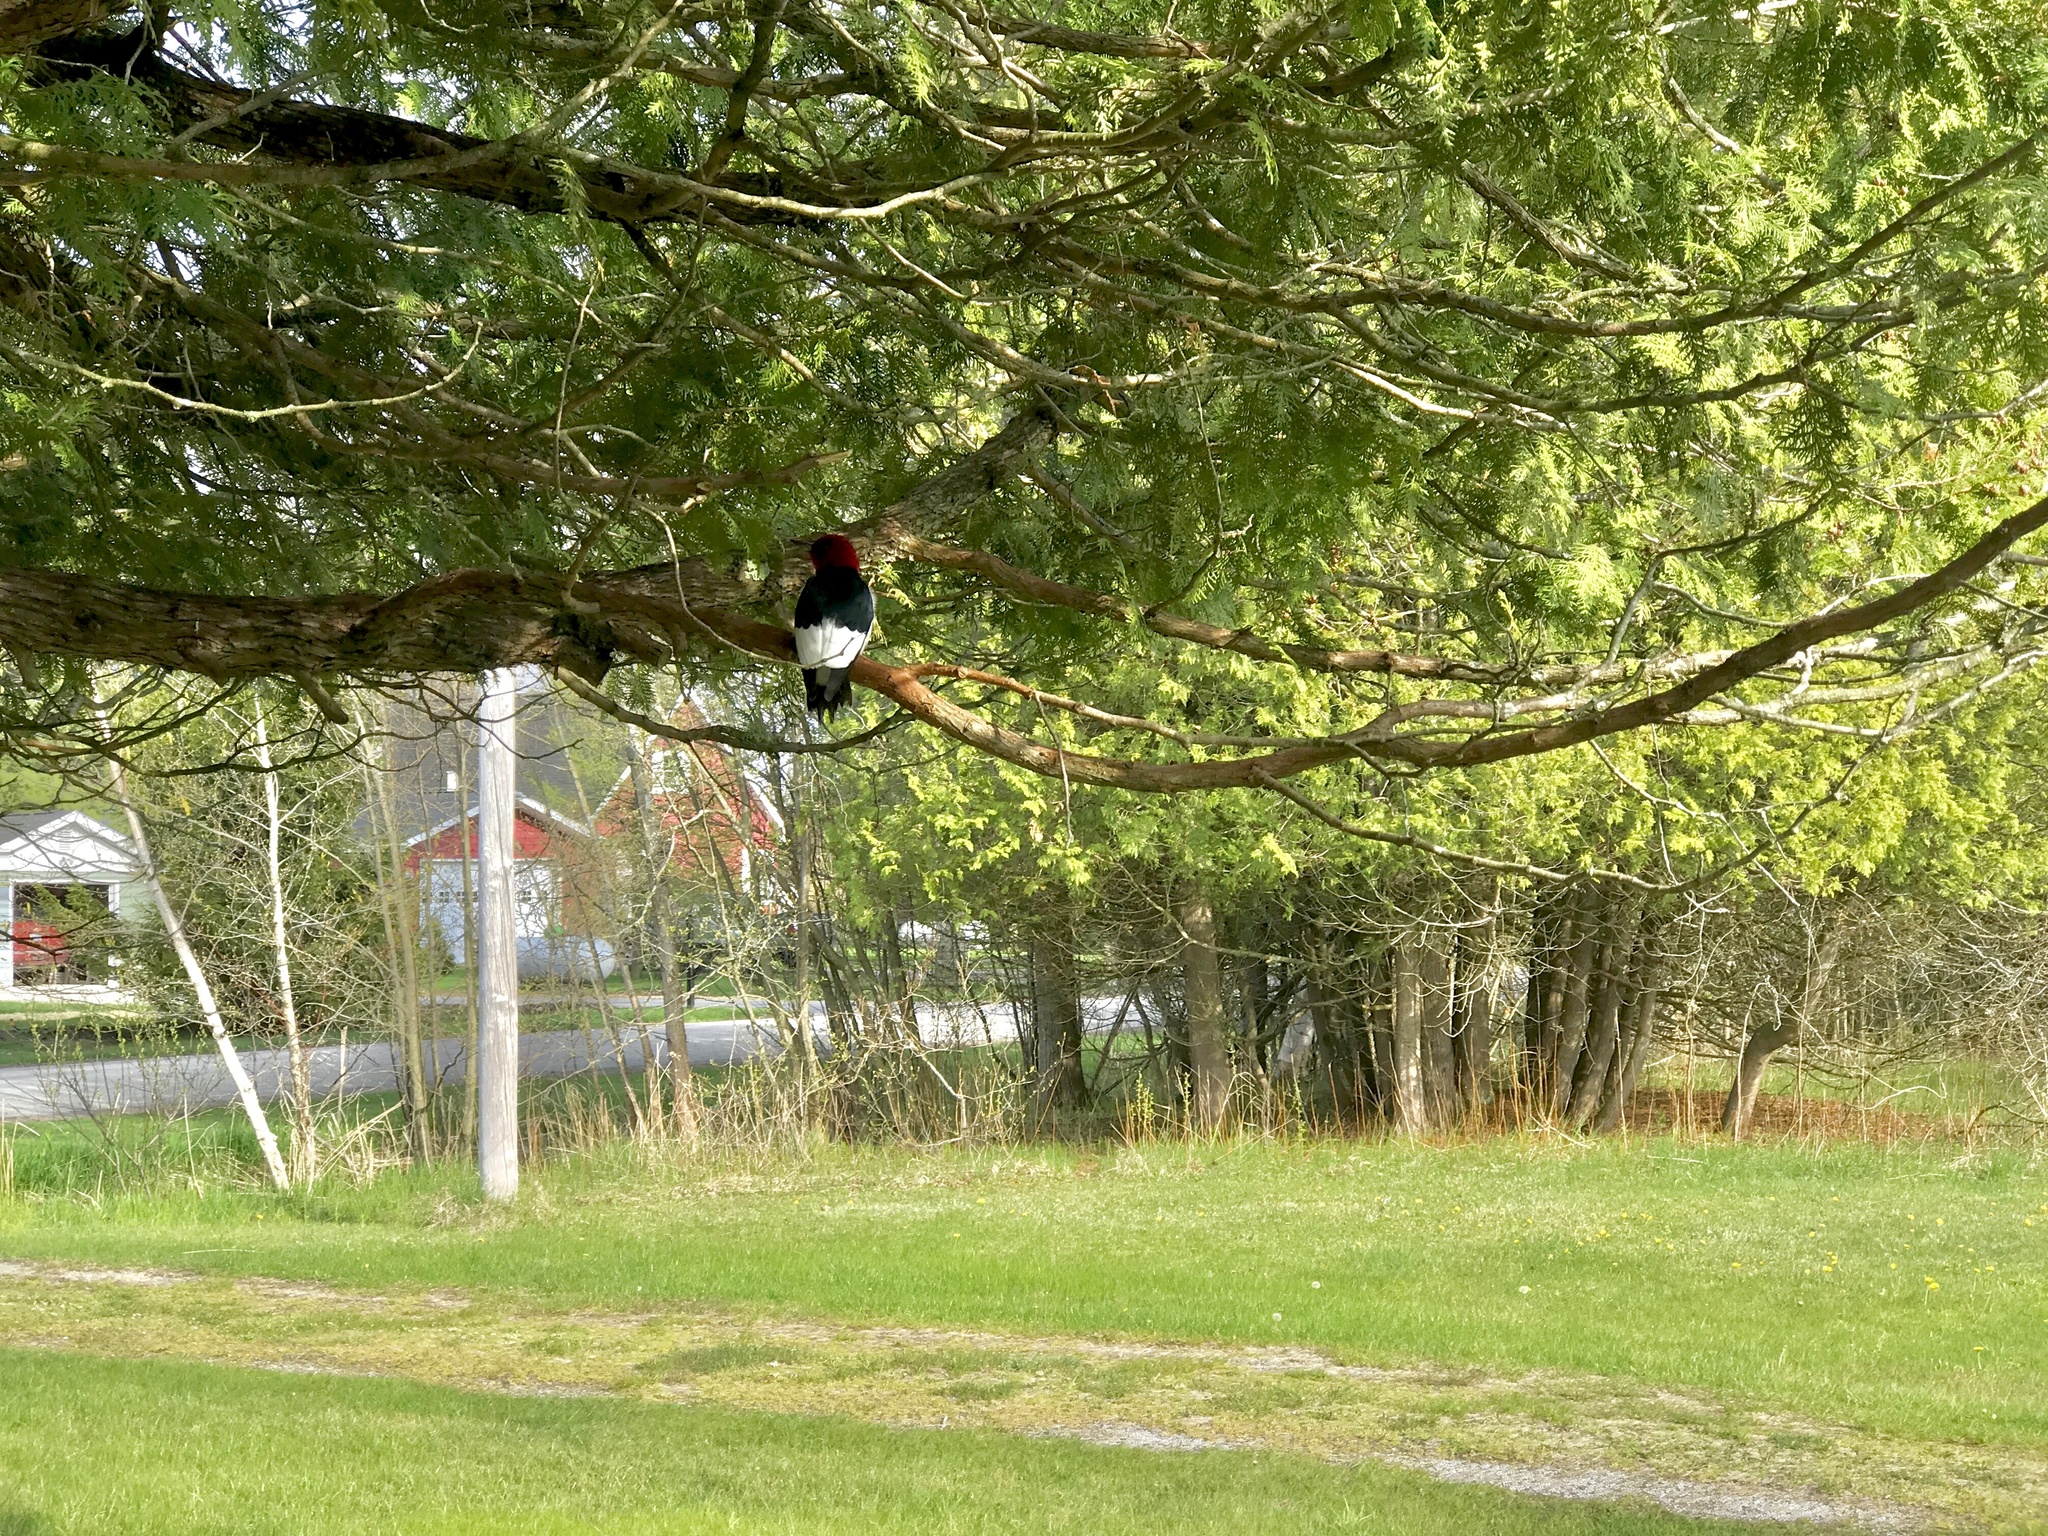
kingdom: Animalia
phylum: Chordata
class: Aves
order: Piciformes
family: Picidae
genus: Melanerpes
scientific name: Melanerpes erythrocephalus
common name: Red-headed woodpecker
